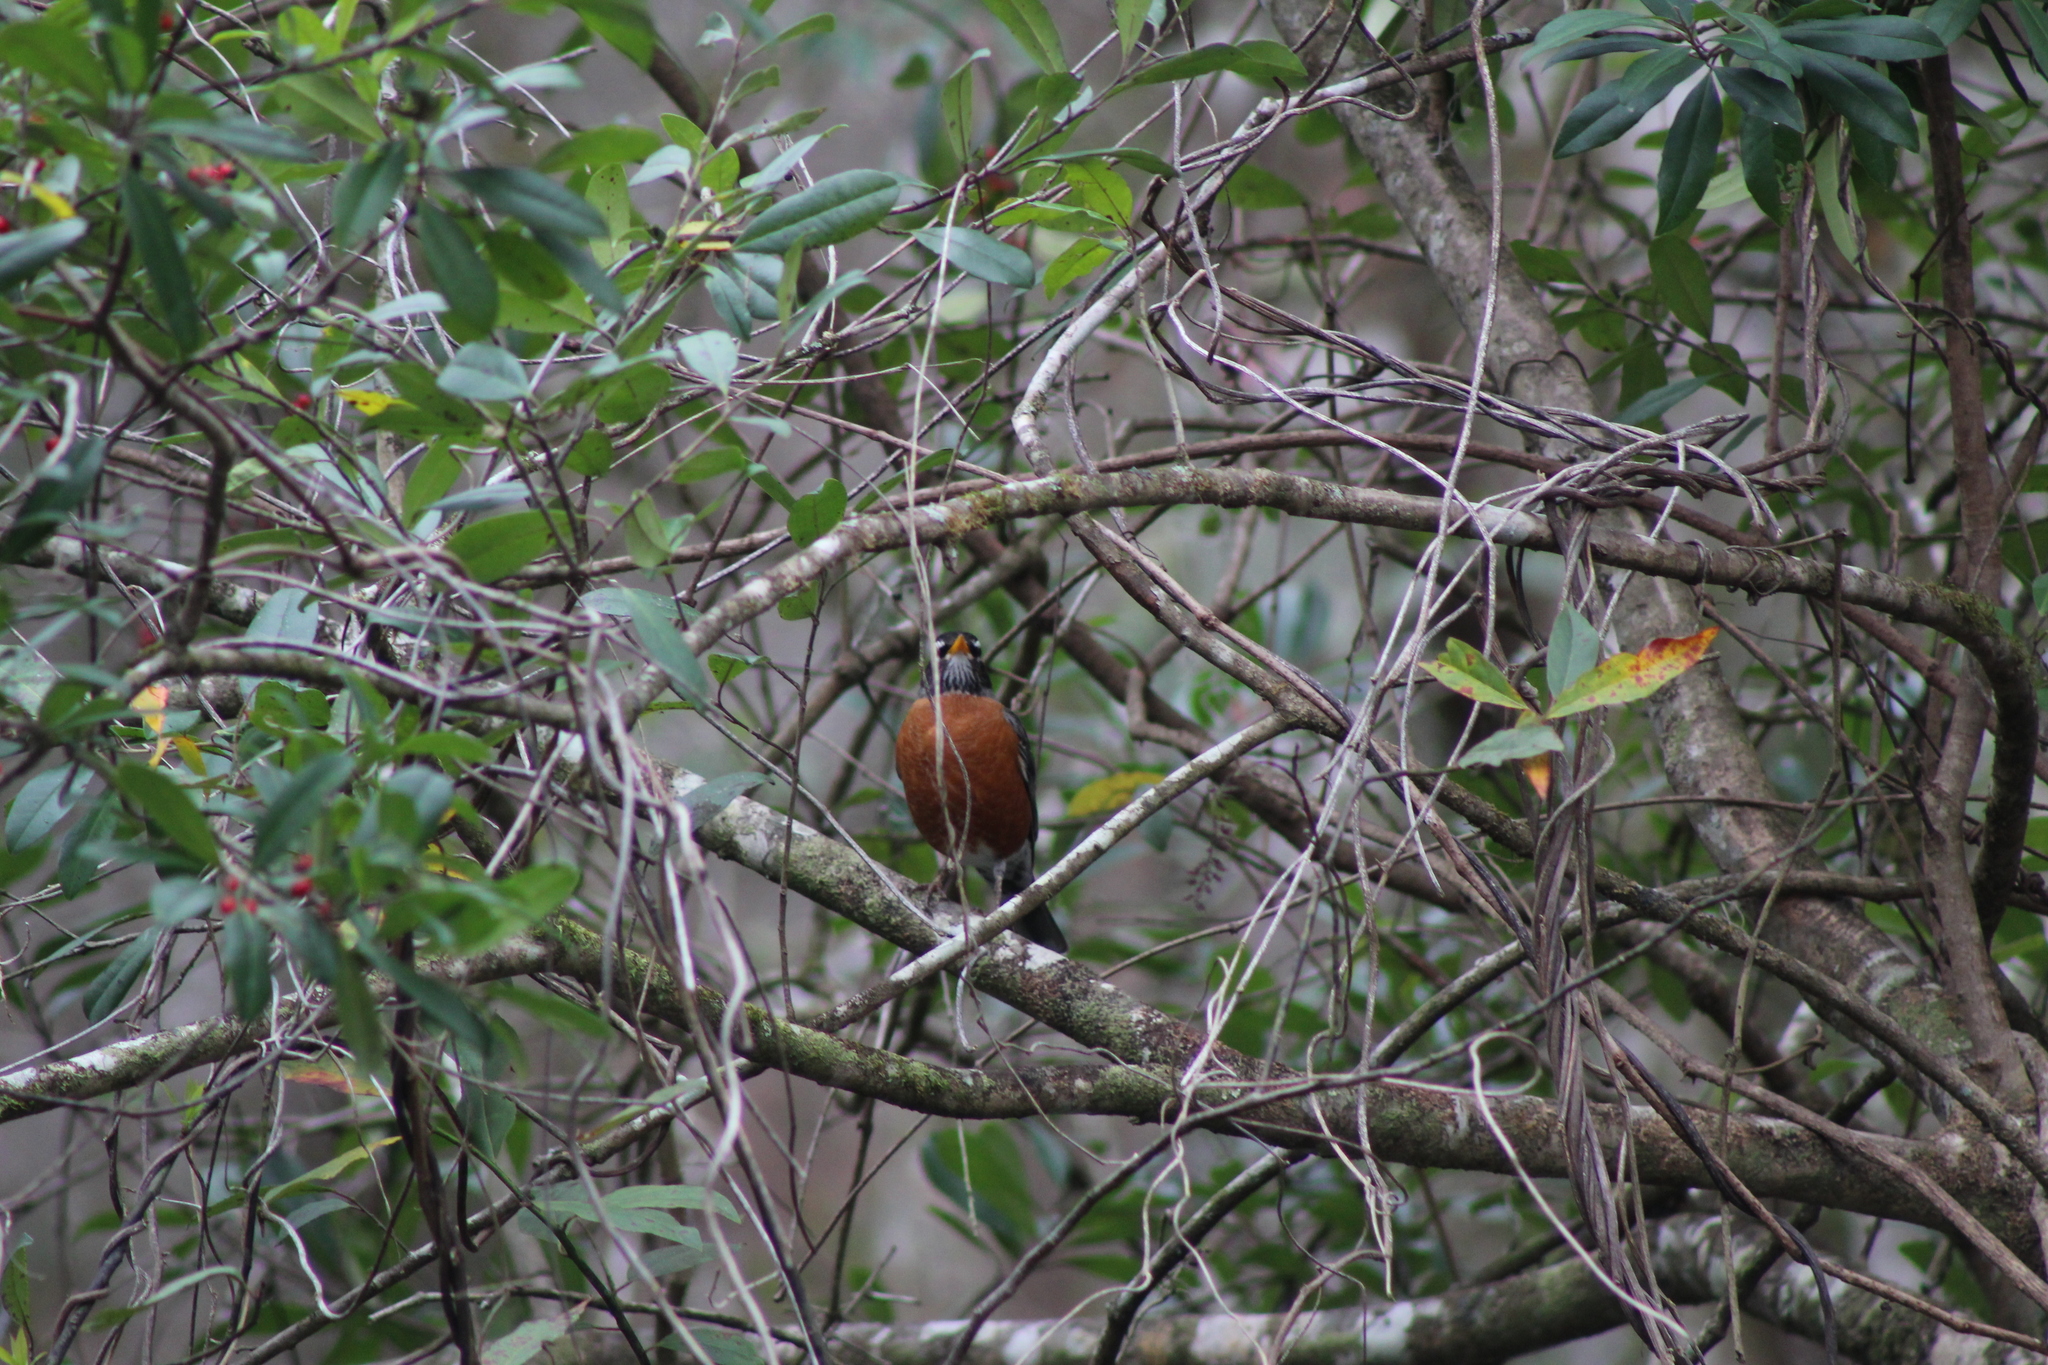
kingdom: Animalia
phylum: Chordata
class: Aves
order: Passeriformes
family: Turdidae
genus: Turdus
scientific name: Turdus migratorius
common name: American robin
